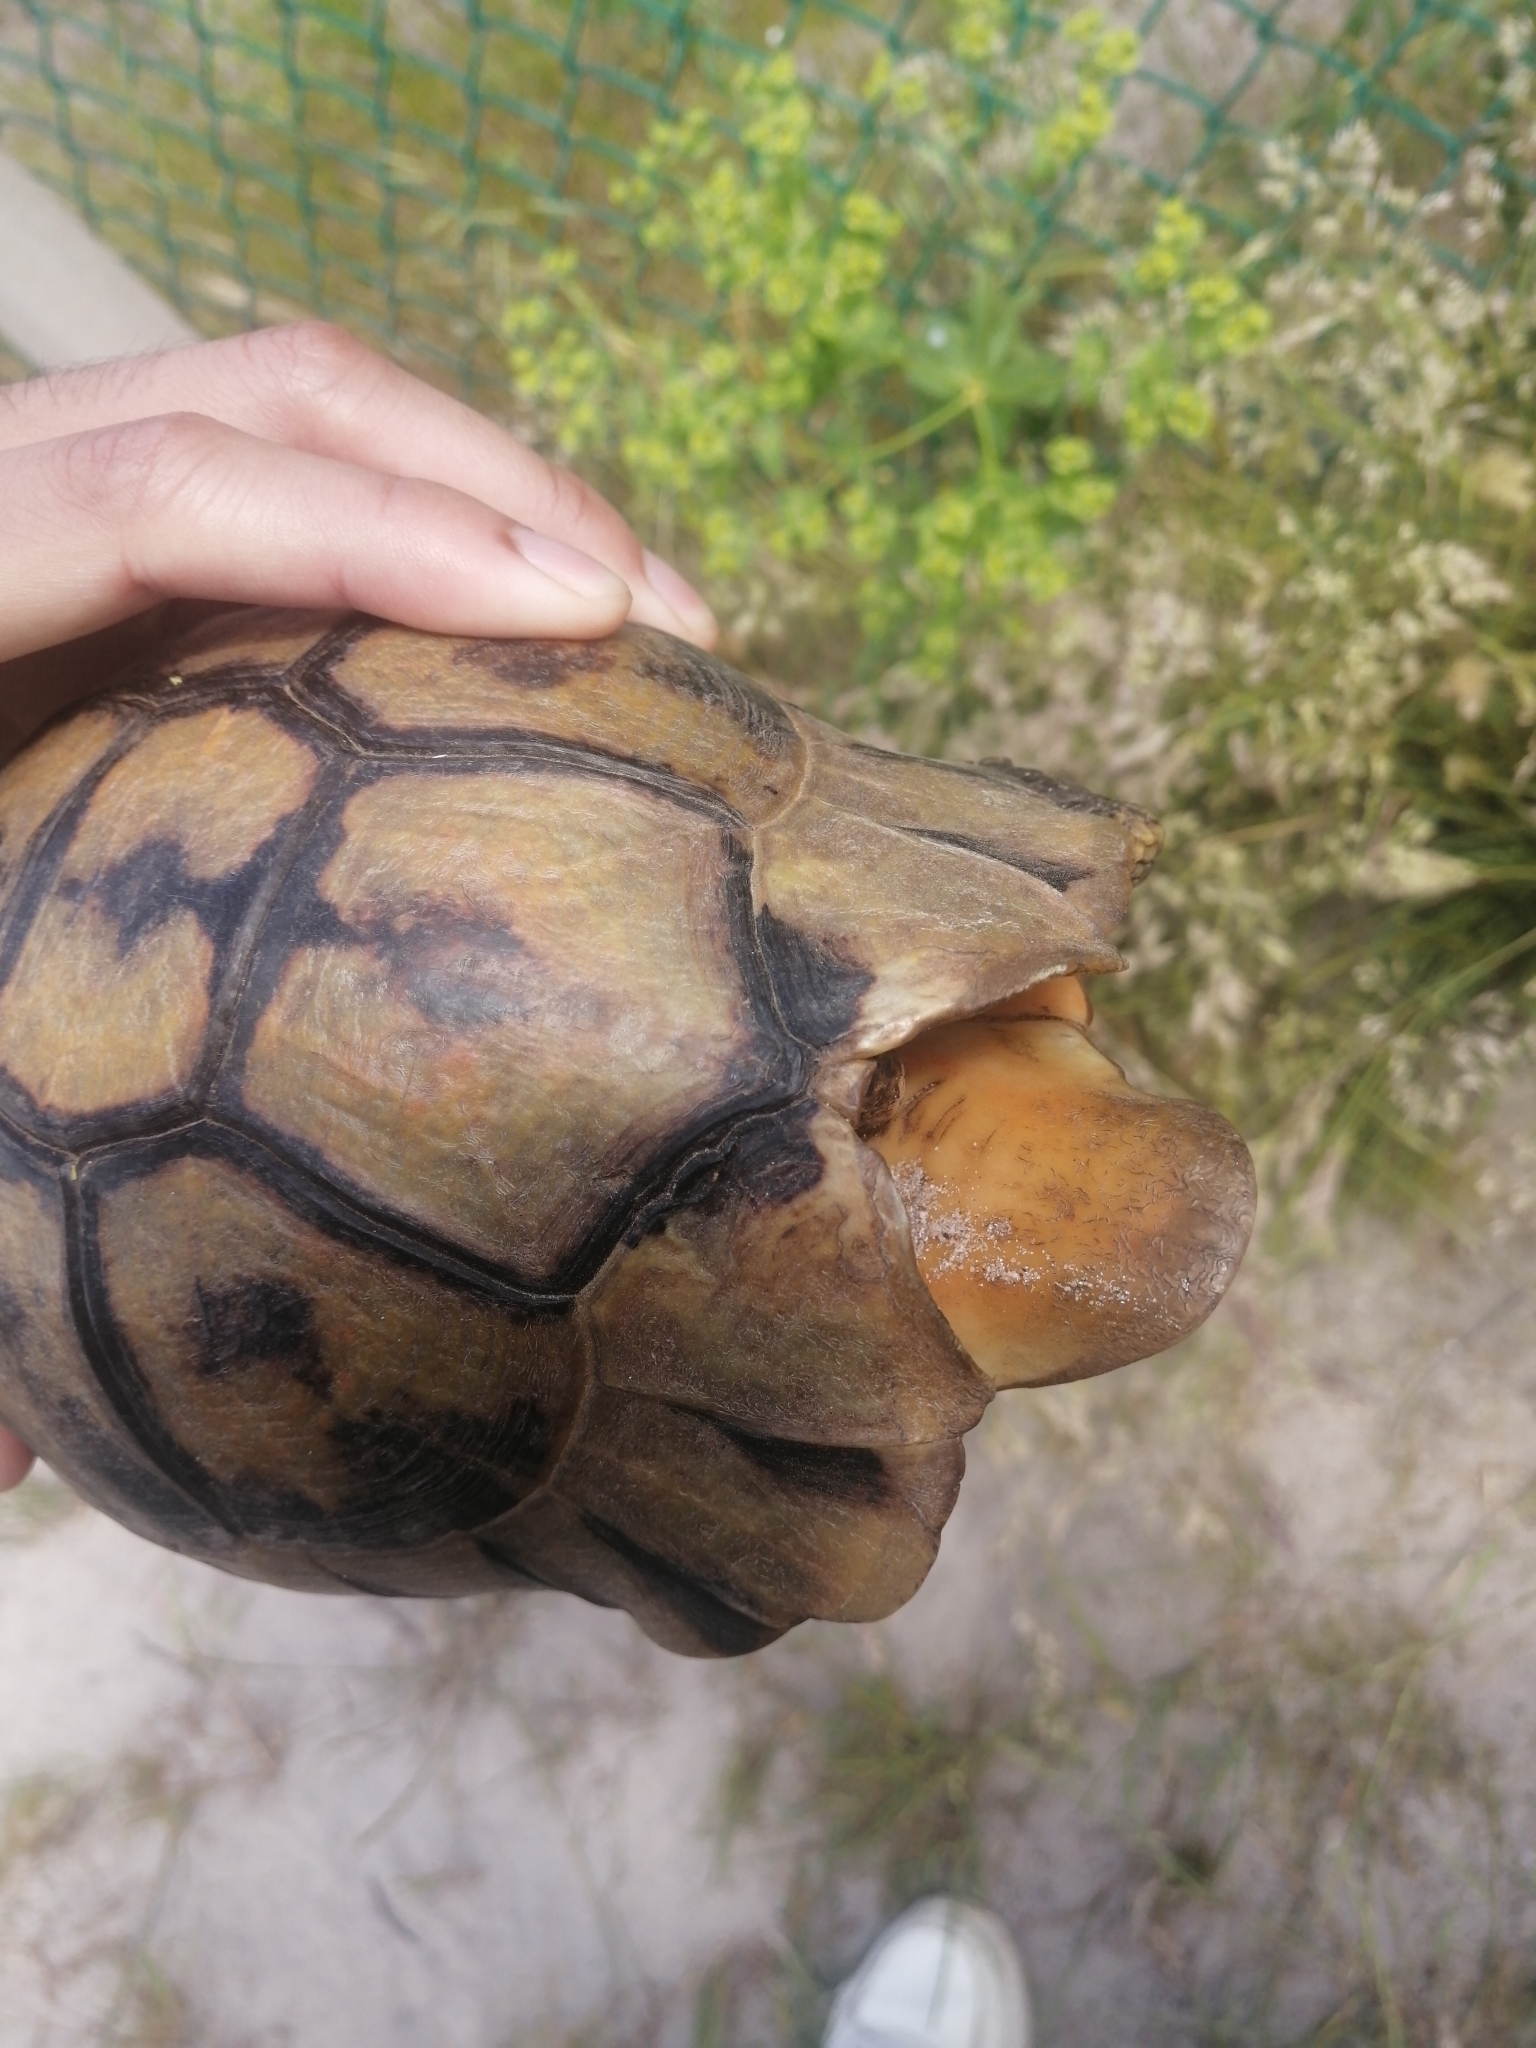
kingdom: Animalia
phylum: Chordata
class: Testudines
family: Testudinidae
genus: Chersina
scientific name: Chersina angulata
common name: South african bowsprit tortoise
